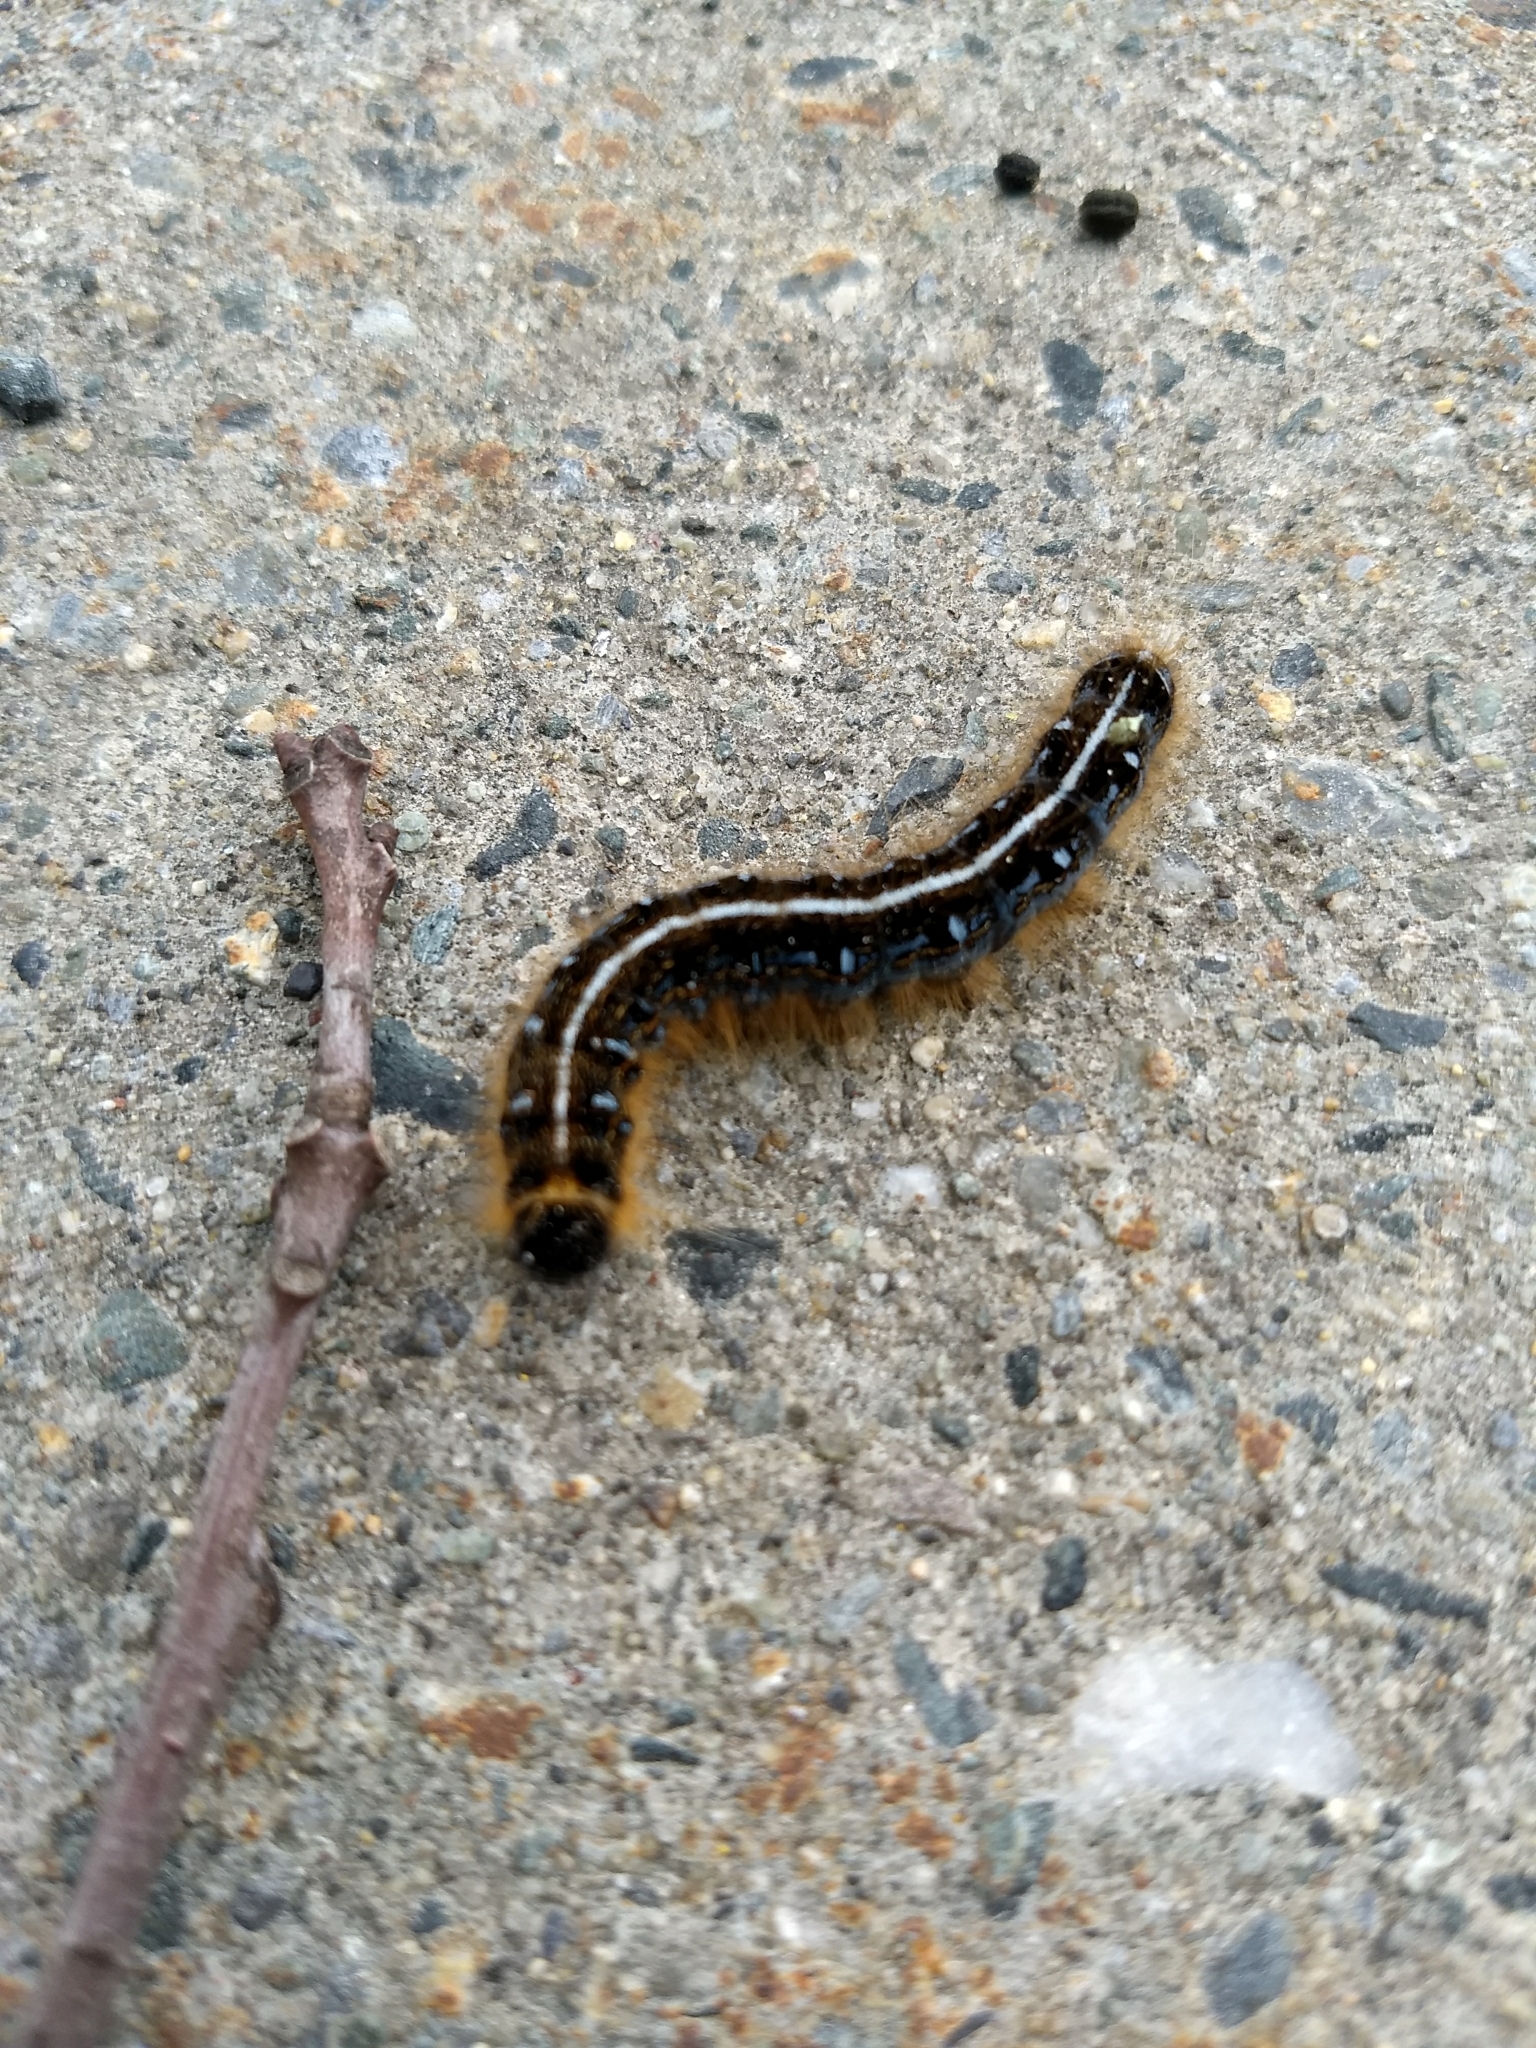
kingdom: Animalia
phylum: Arthropoda
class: Insecta
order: Lepidoptera
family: Lasiocampidae
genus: Malacosoma
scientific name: Malacosoma americana
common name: Eastern tent caterpillar moth
